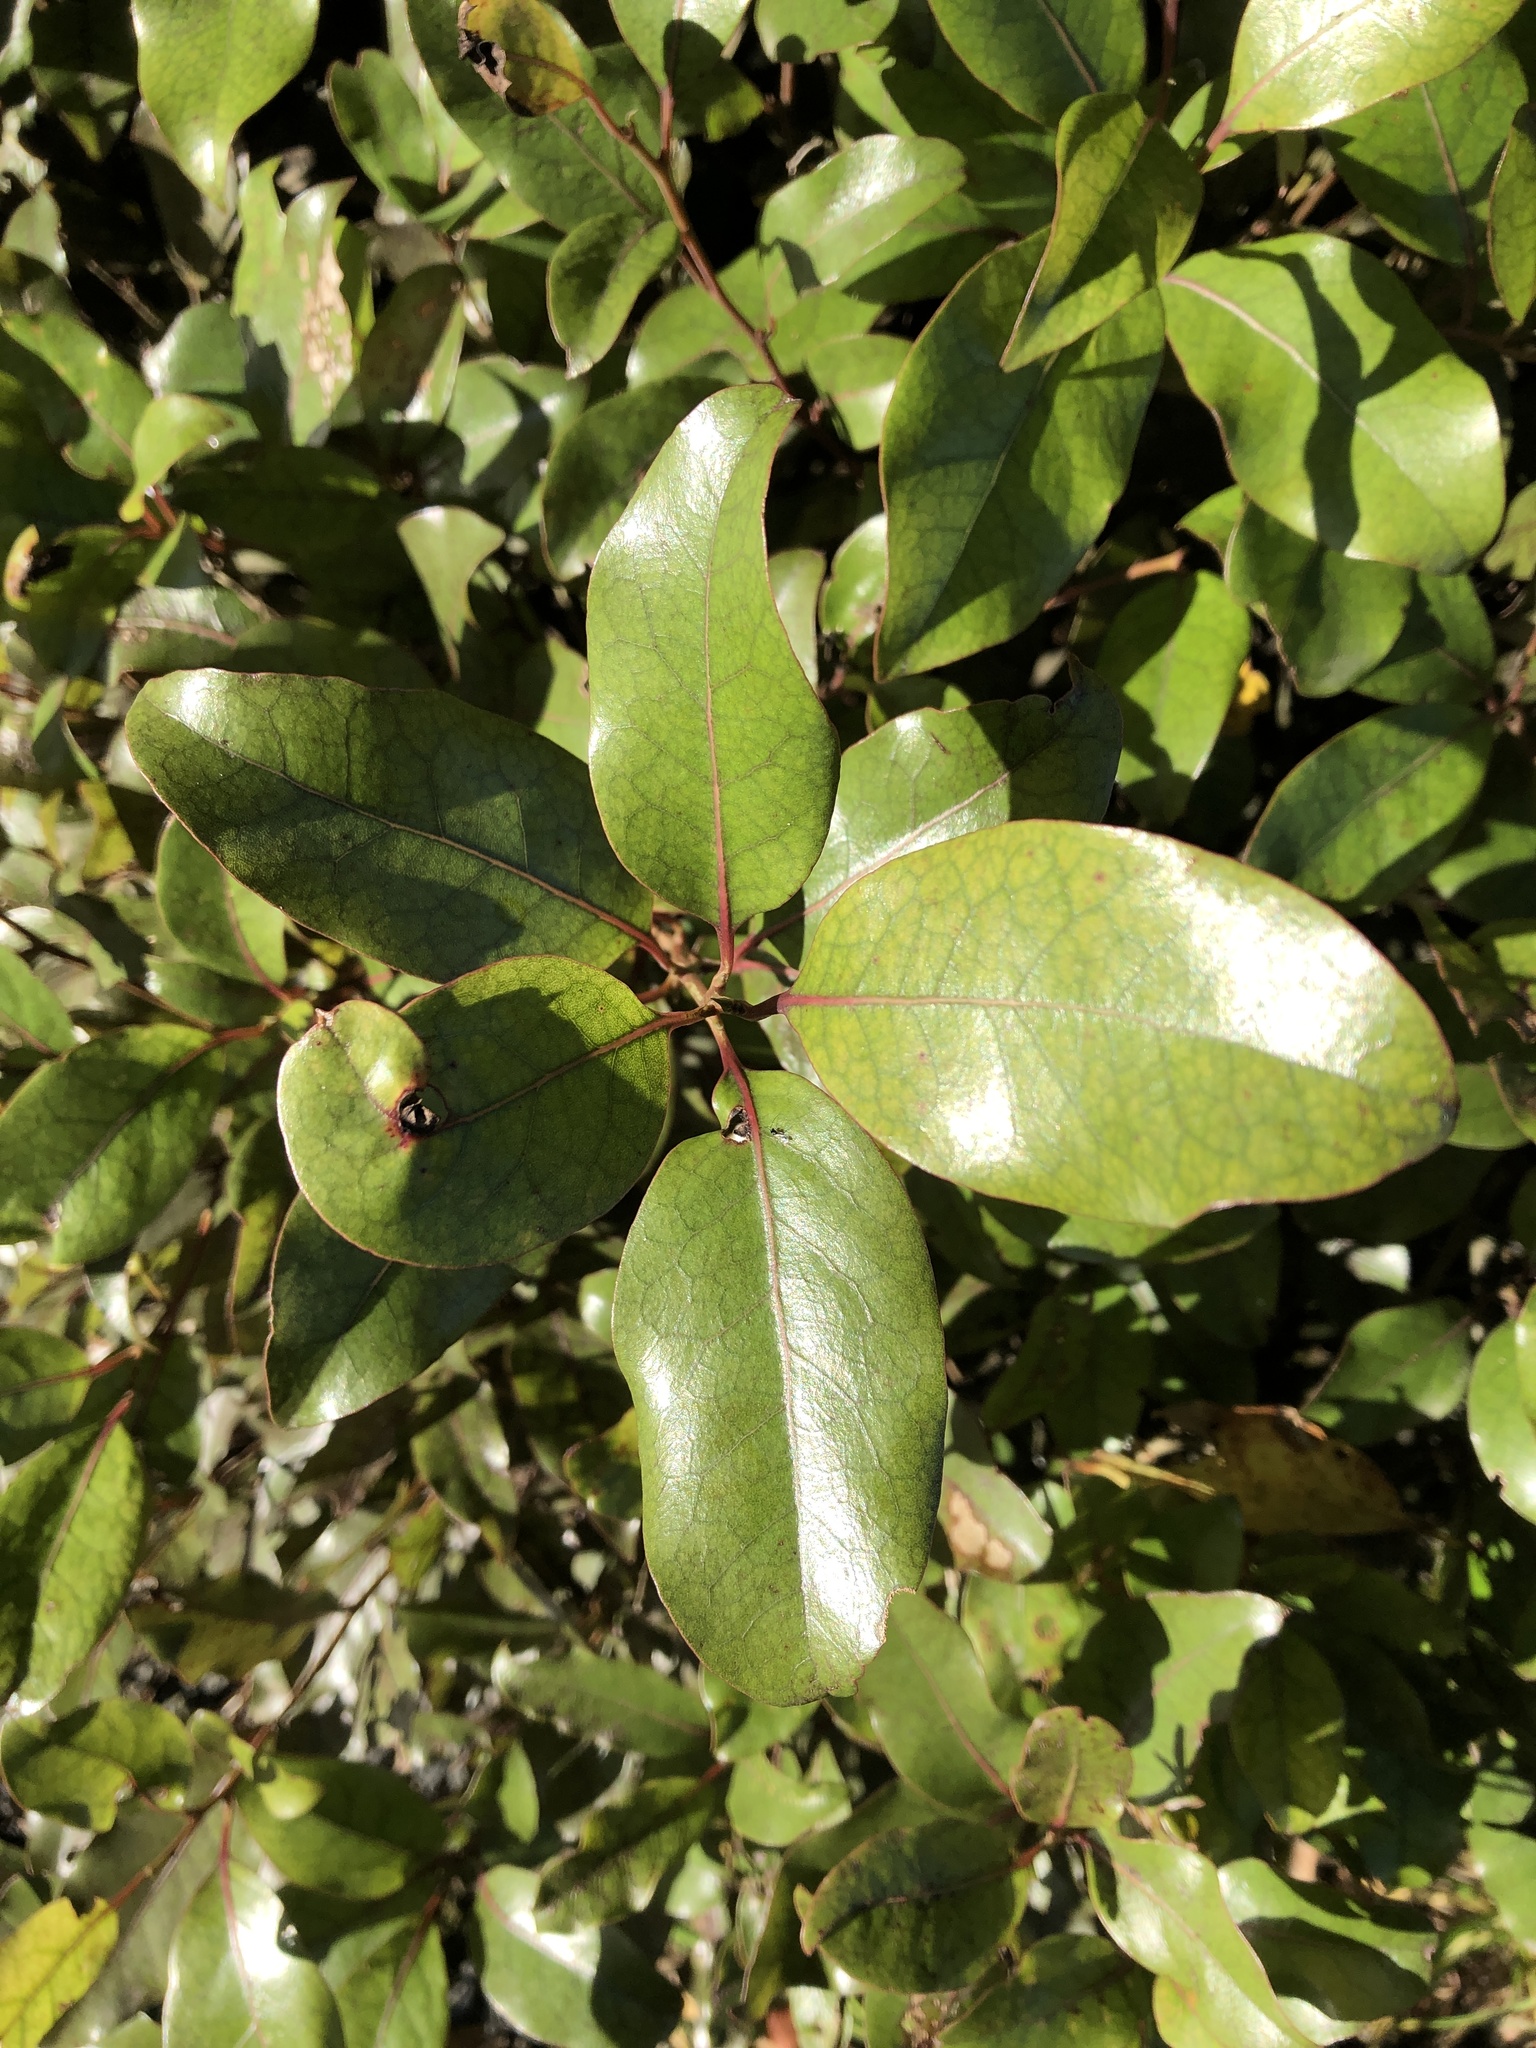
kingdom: Plantae
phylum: Tracheophyta
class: Magnoliopsida
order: Laurales
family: Lauraceae
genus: Litsea
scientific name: Litsea calicaris
